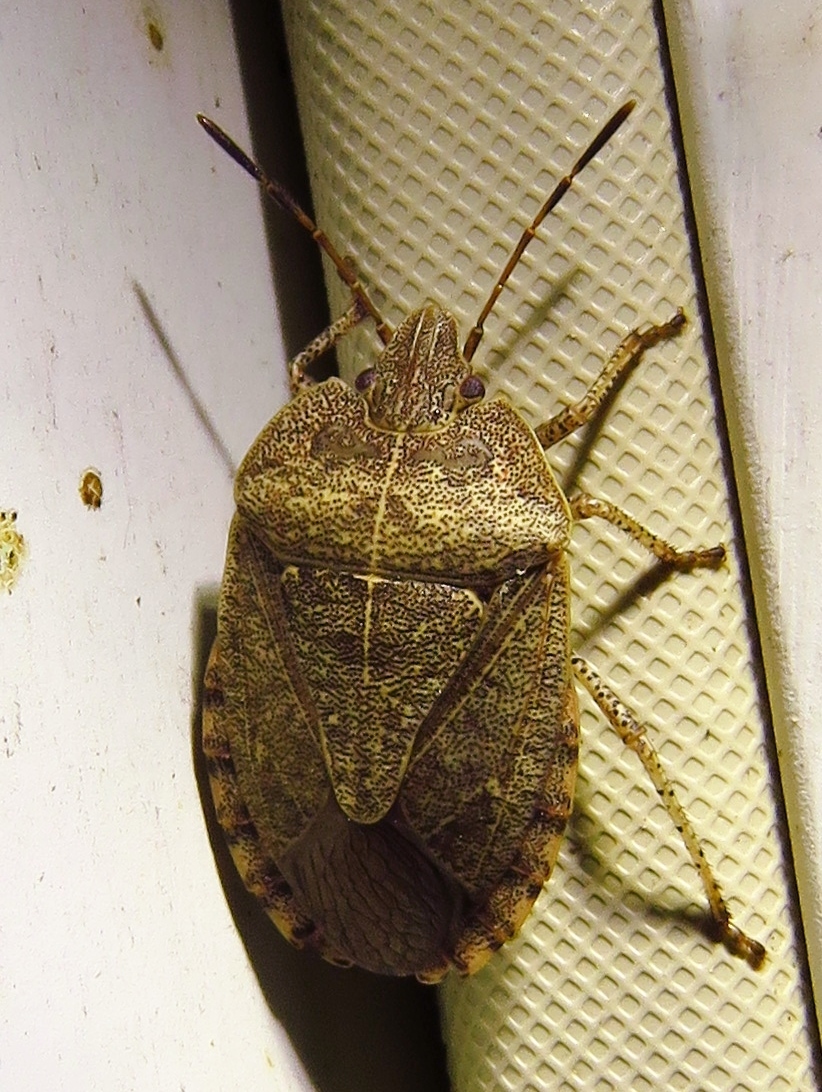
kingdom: Animalia
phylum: Arthropoda
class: Insecta
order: Hemiptera
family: Pentatomidae
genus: Menecles
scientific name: Menecles insertus
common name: Elf shoe stink bug
